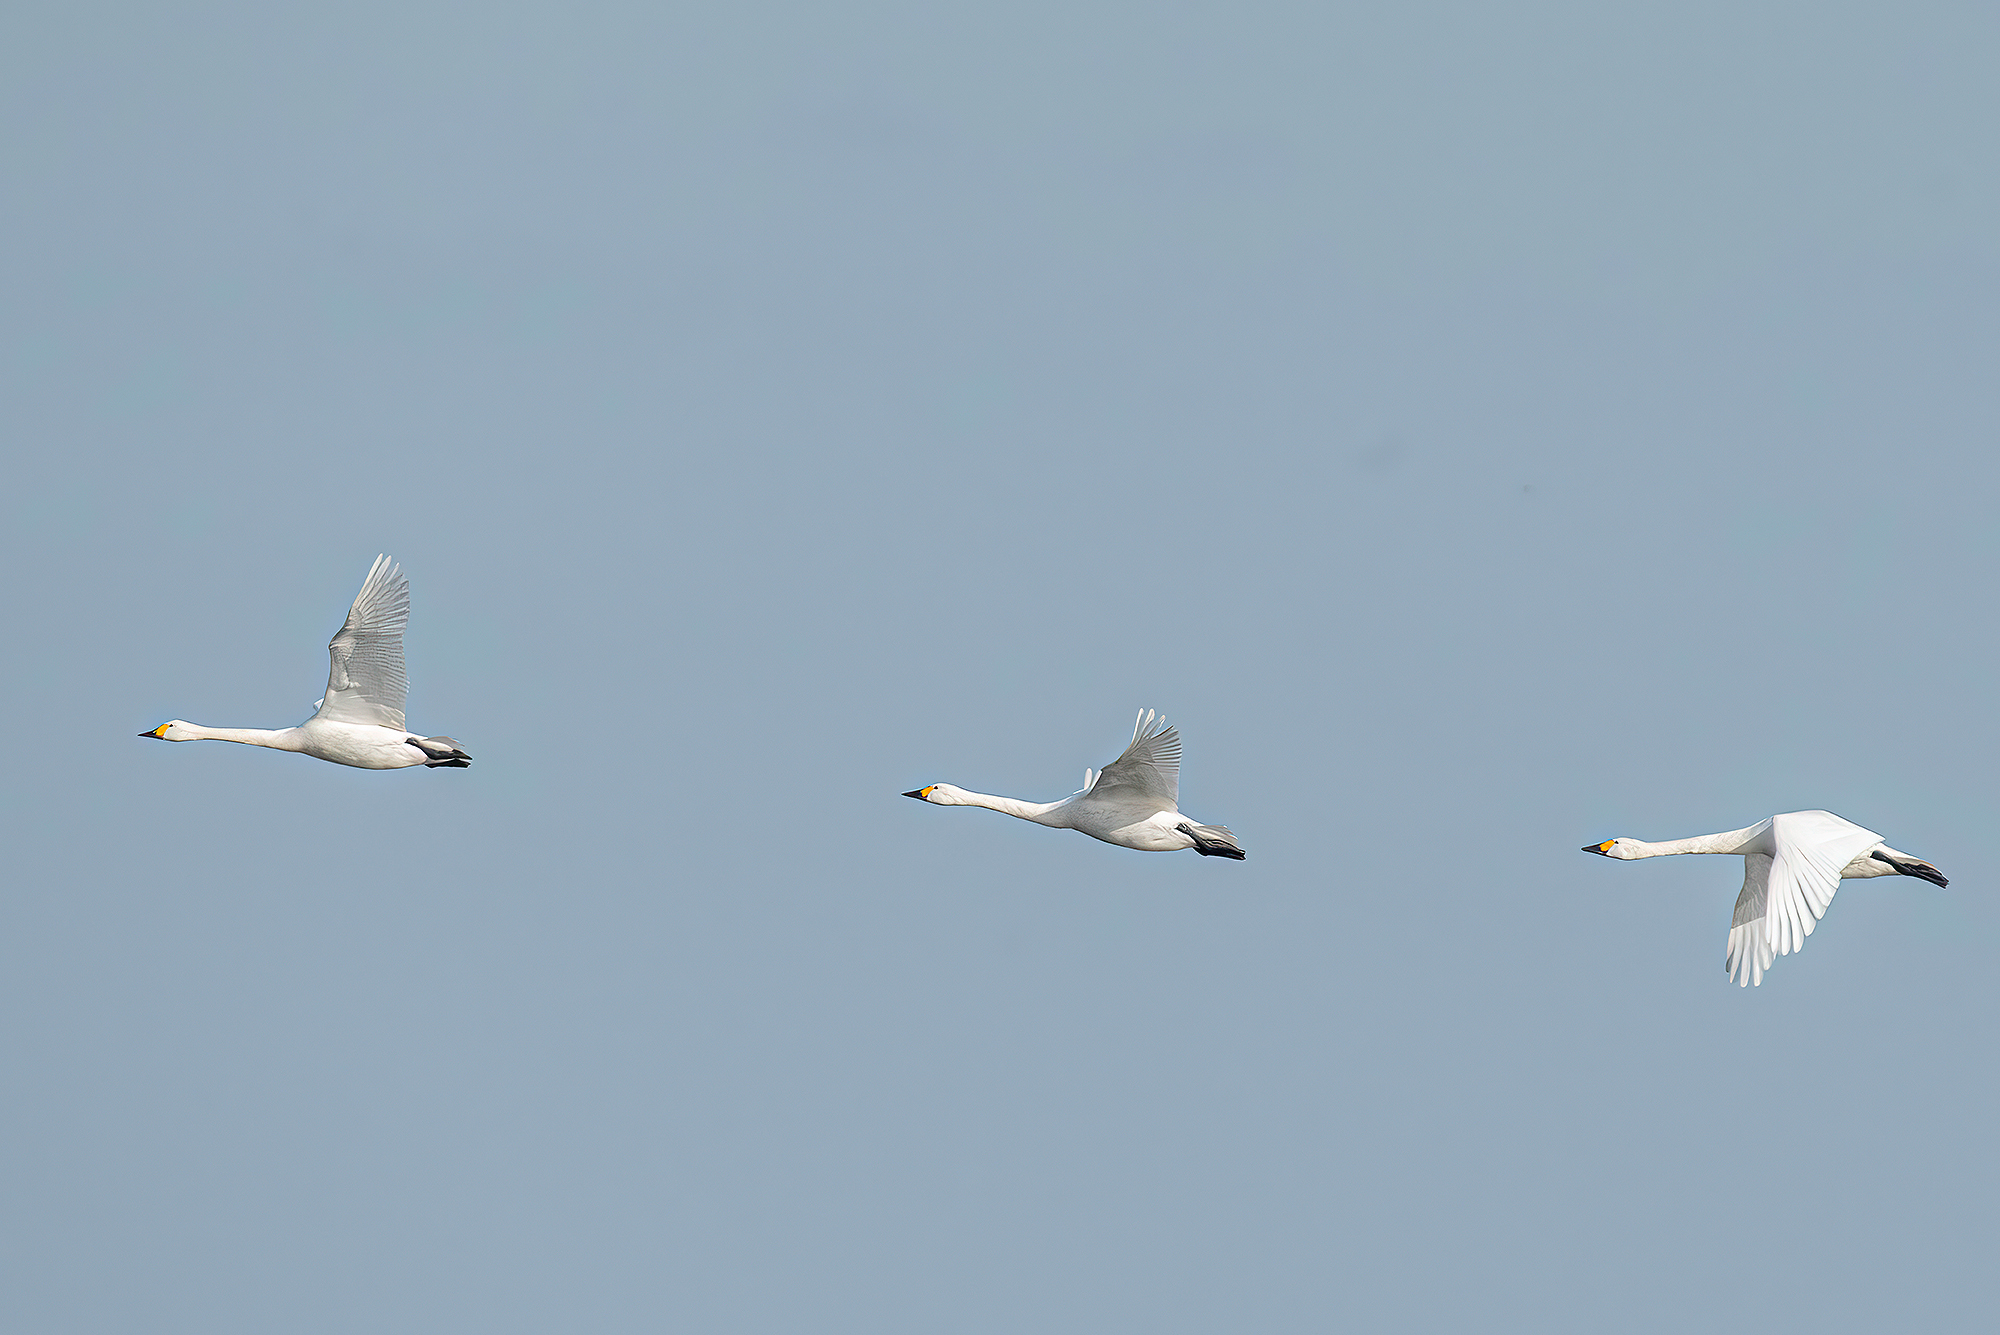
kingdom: Animalia
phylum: Chordata
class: Aves
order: Anseriformes
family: Anatidae
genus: Cygnus
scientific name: Cygnus columbianus
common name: Tundra swan
